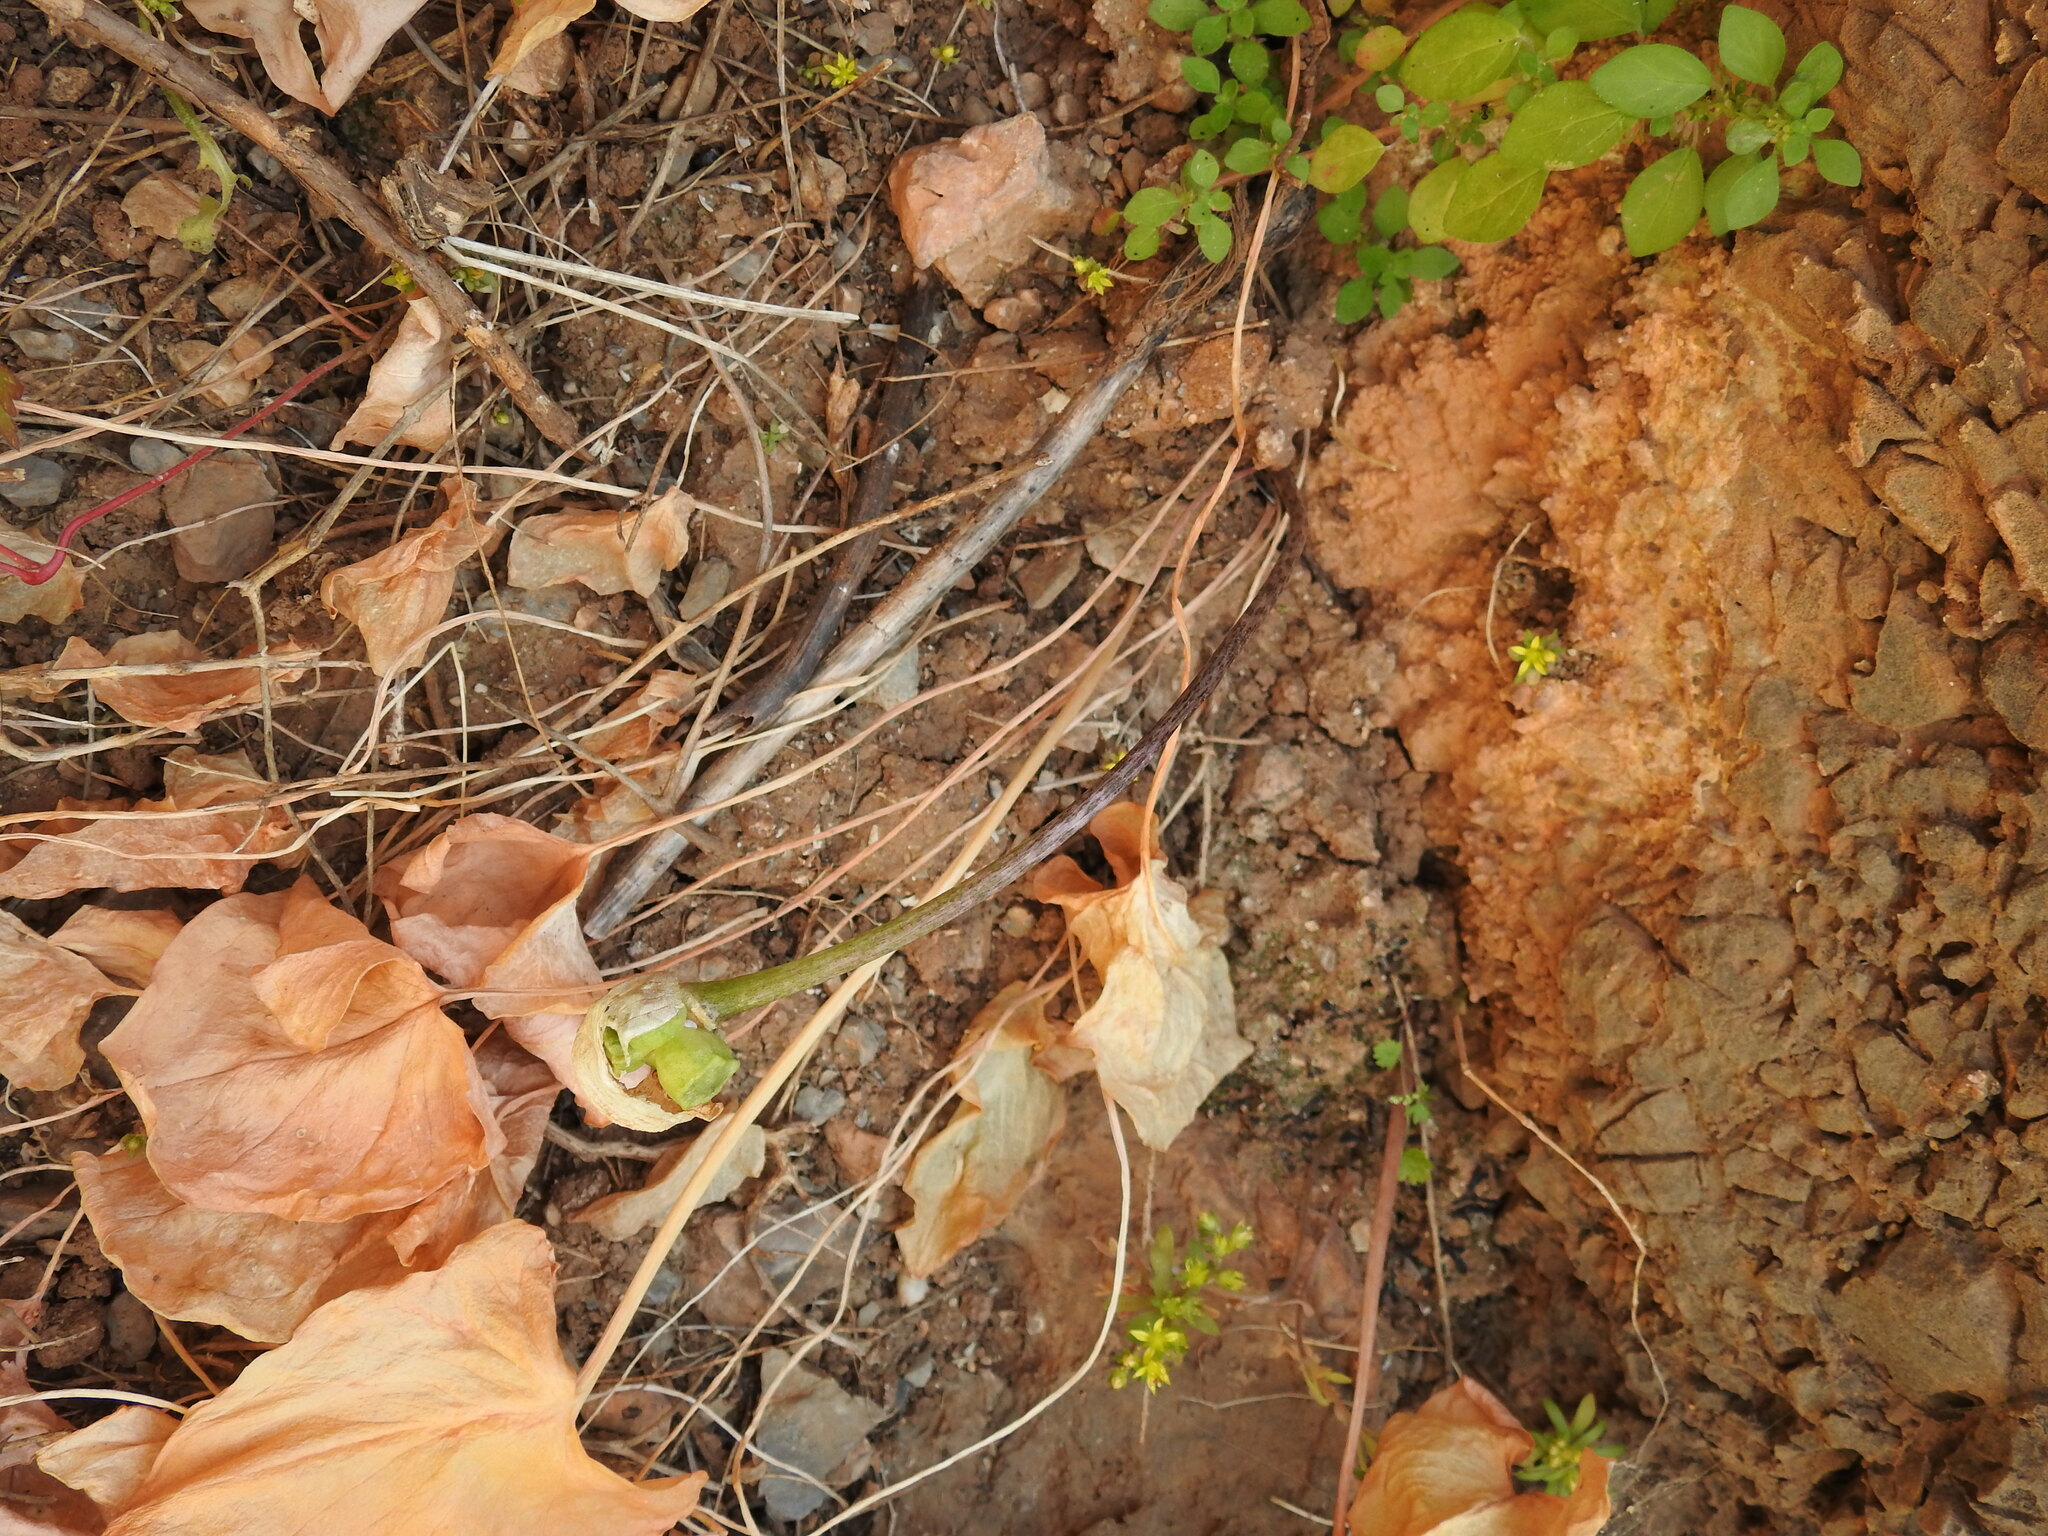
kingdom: Plantae
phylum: Tracheophyta
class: Liliopsida
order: Alismatales
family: Araceae
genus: Arisarum
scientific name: Arisarum vulgare
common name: Common arisarum
